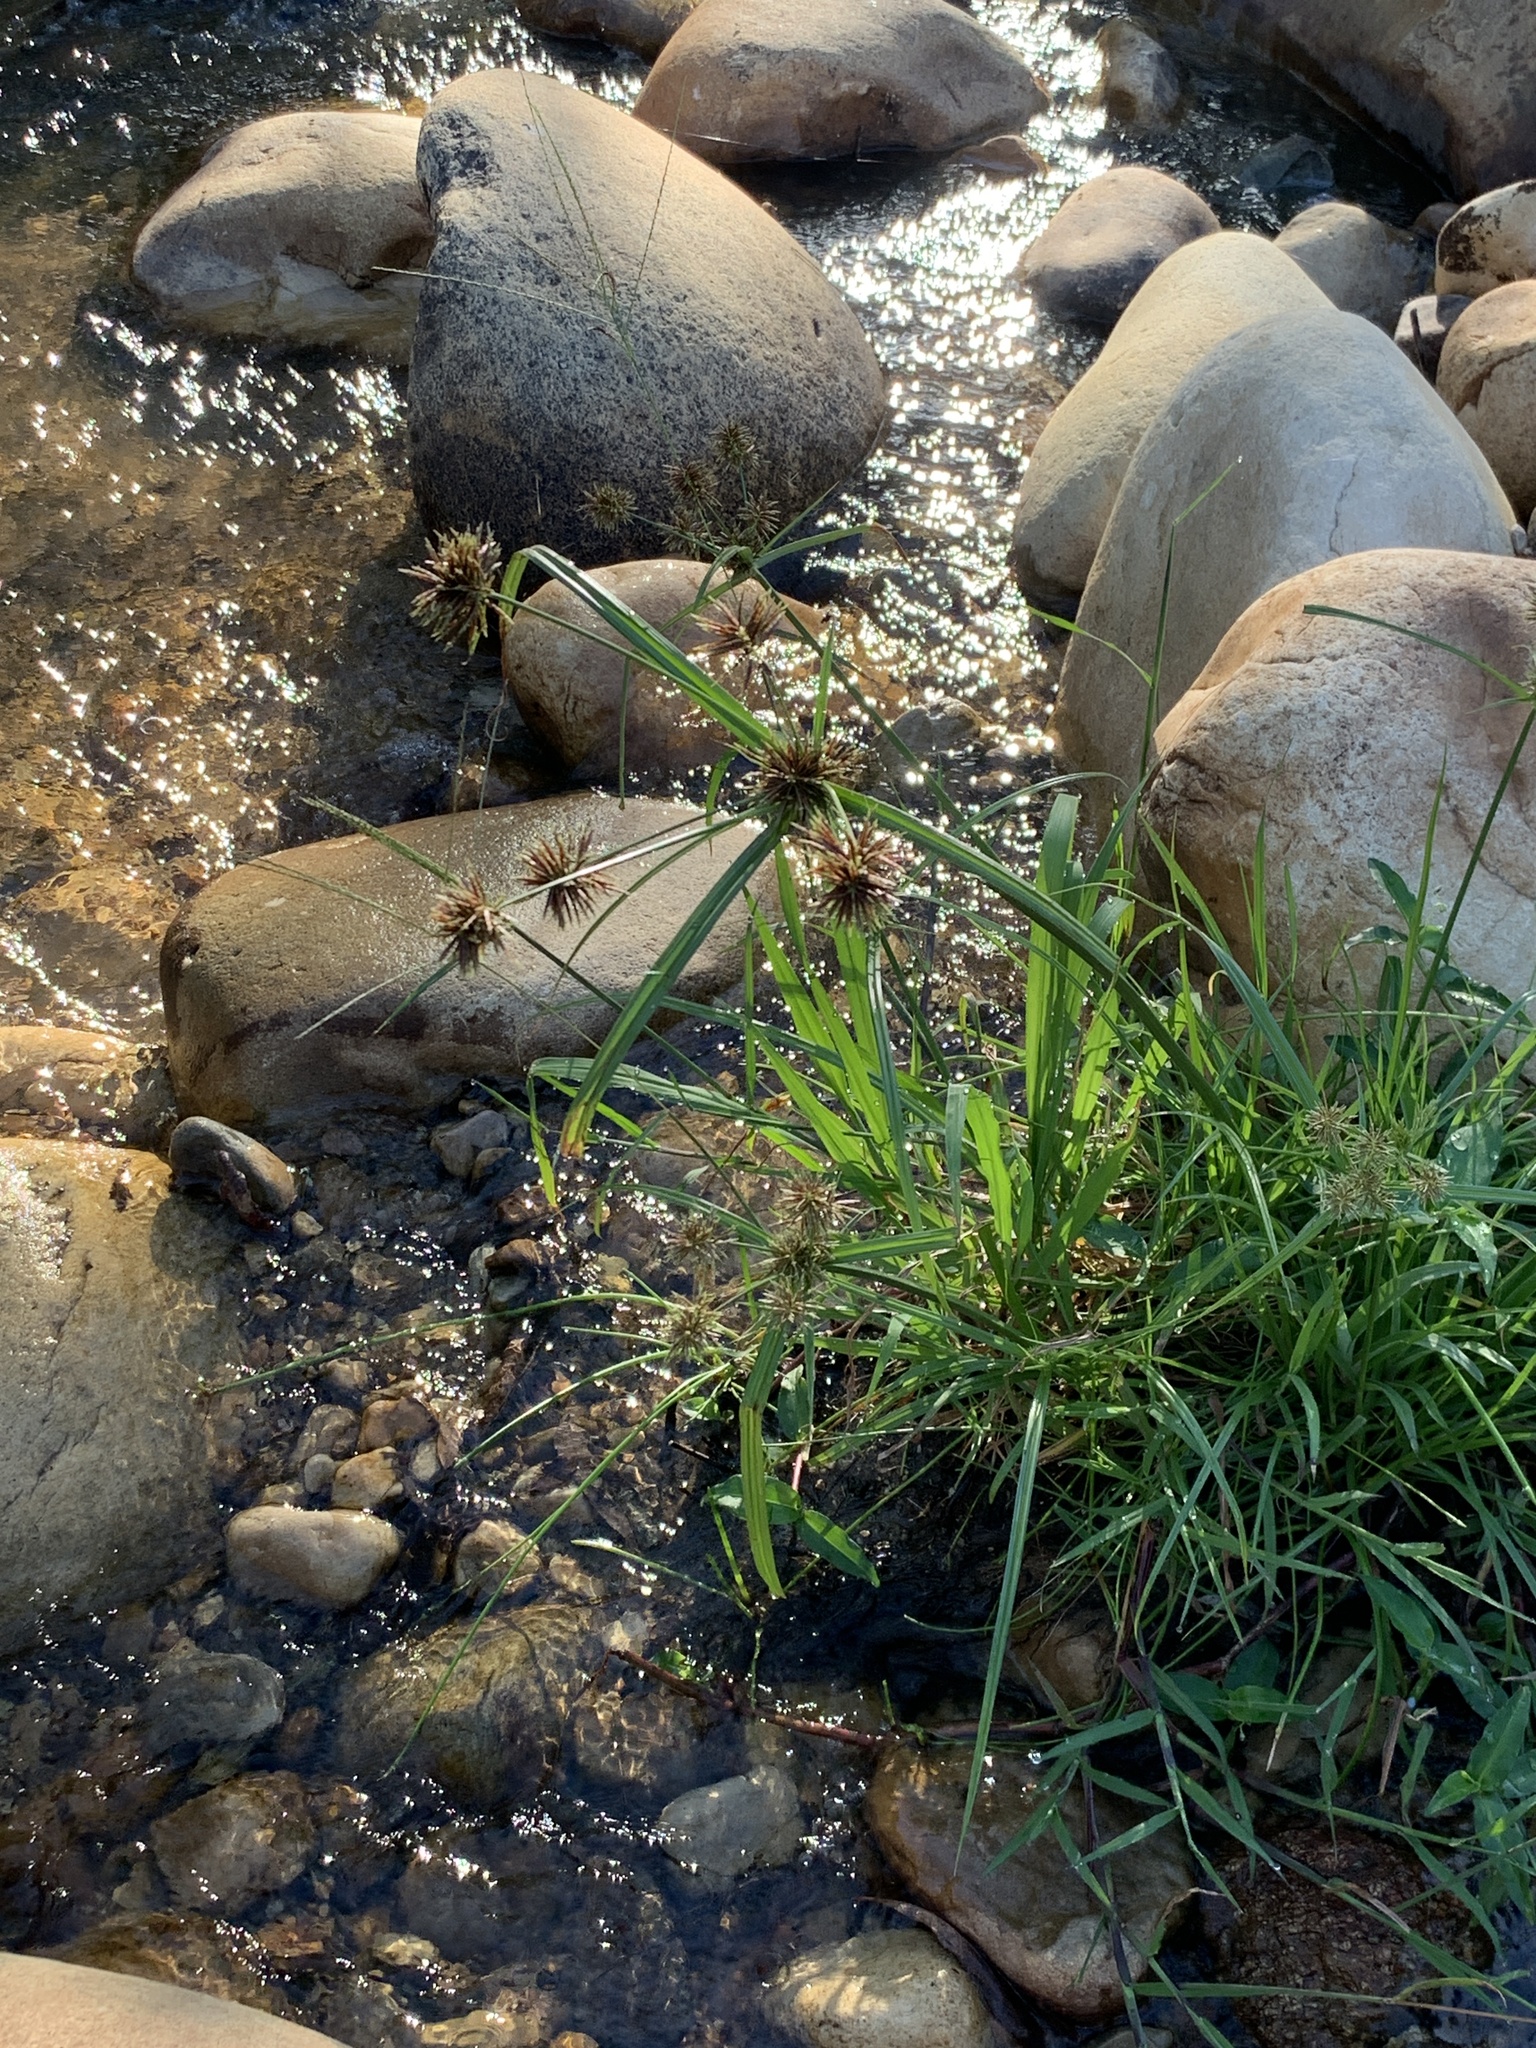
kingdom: Plantae
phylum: Tracheophyta
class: Liliopsida
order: Poales
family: Cyperaceae
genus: Cyperus
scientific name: Cyperus congestus
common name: Dense flat sedge
